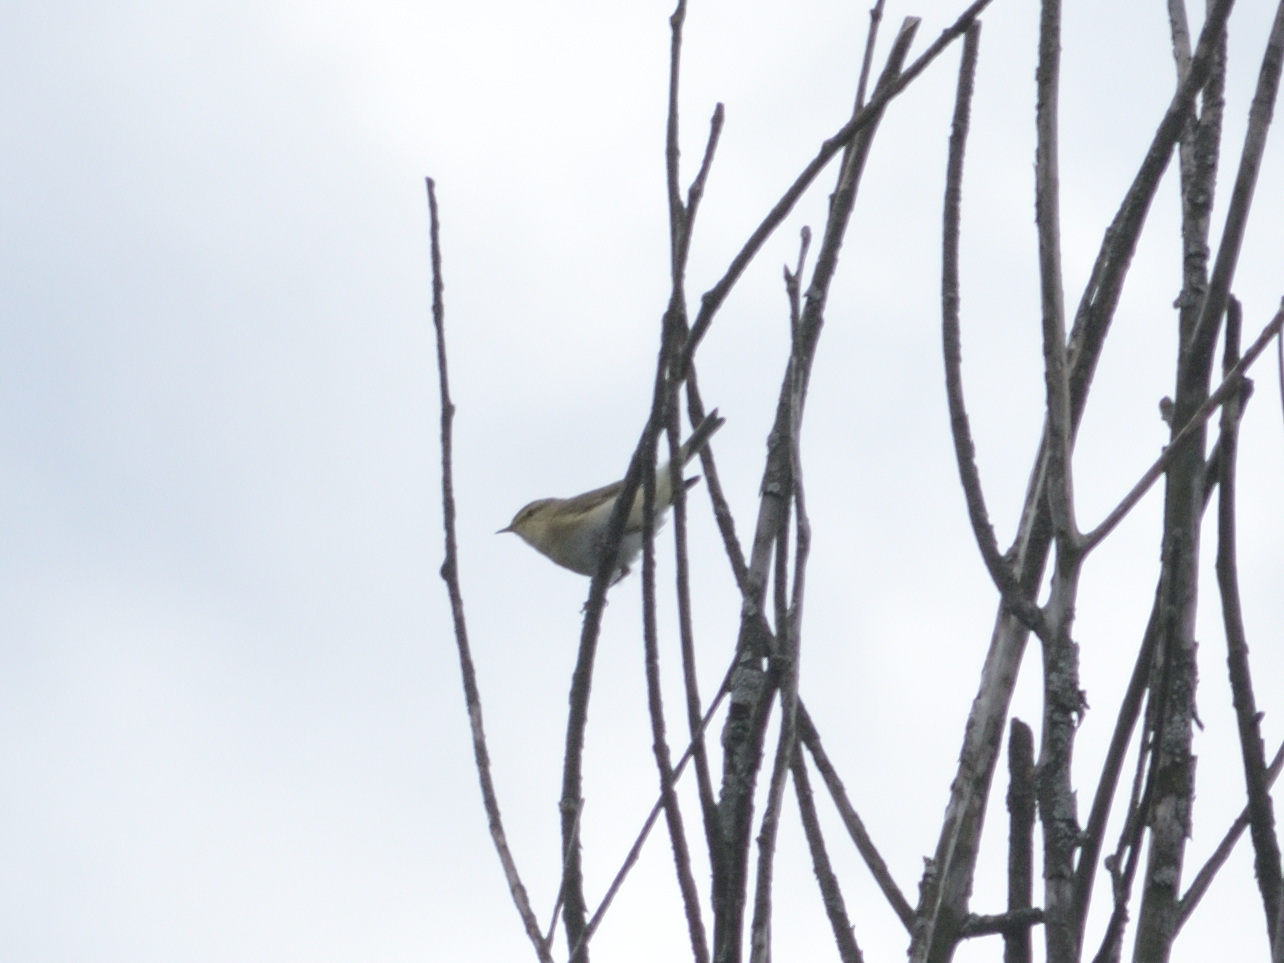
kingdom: Animalia
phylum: Chordata
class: Aves
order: Passeriformes
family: Phylloscopidae
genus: Phylloscopus
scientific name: Phylloscopus trochilus
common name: Willow warbler
